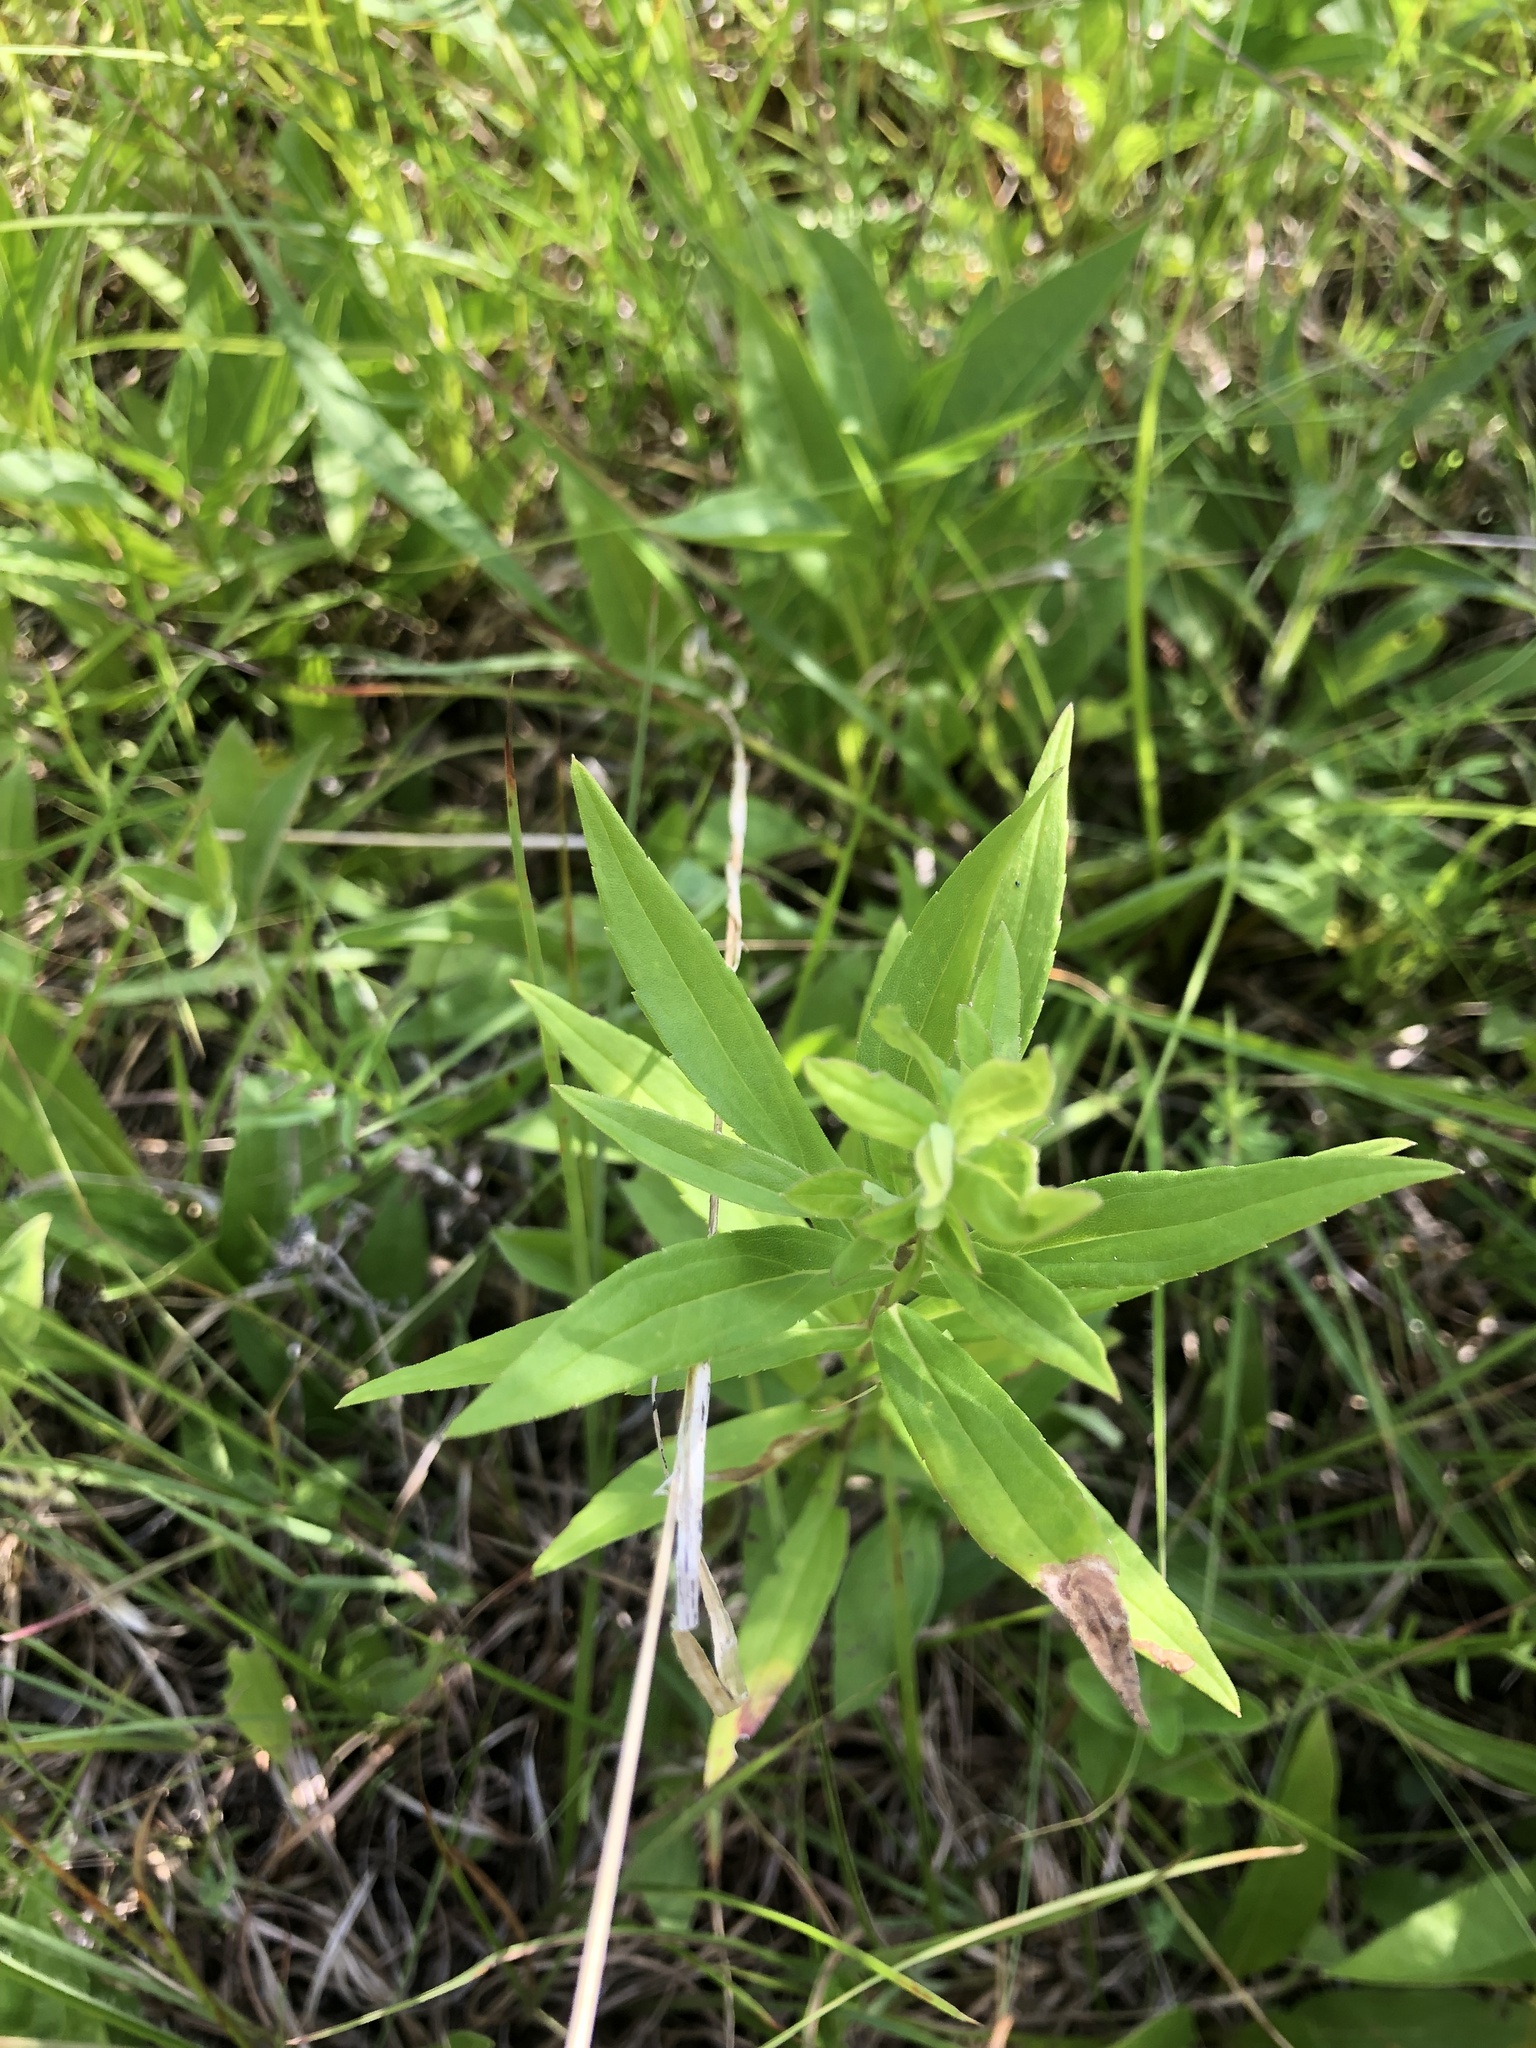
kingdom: Plantae
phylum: Tracheophyta
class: Magnoliopsida
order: Asterales
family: Asteraceae
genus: Solidago
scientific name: Solidago altissima
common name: Late goldenrod
